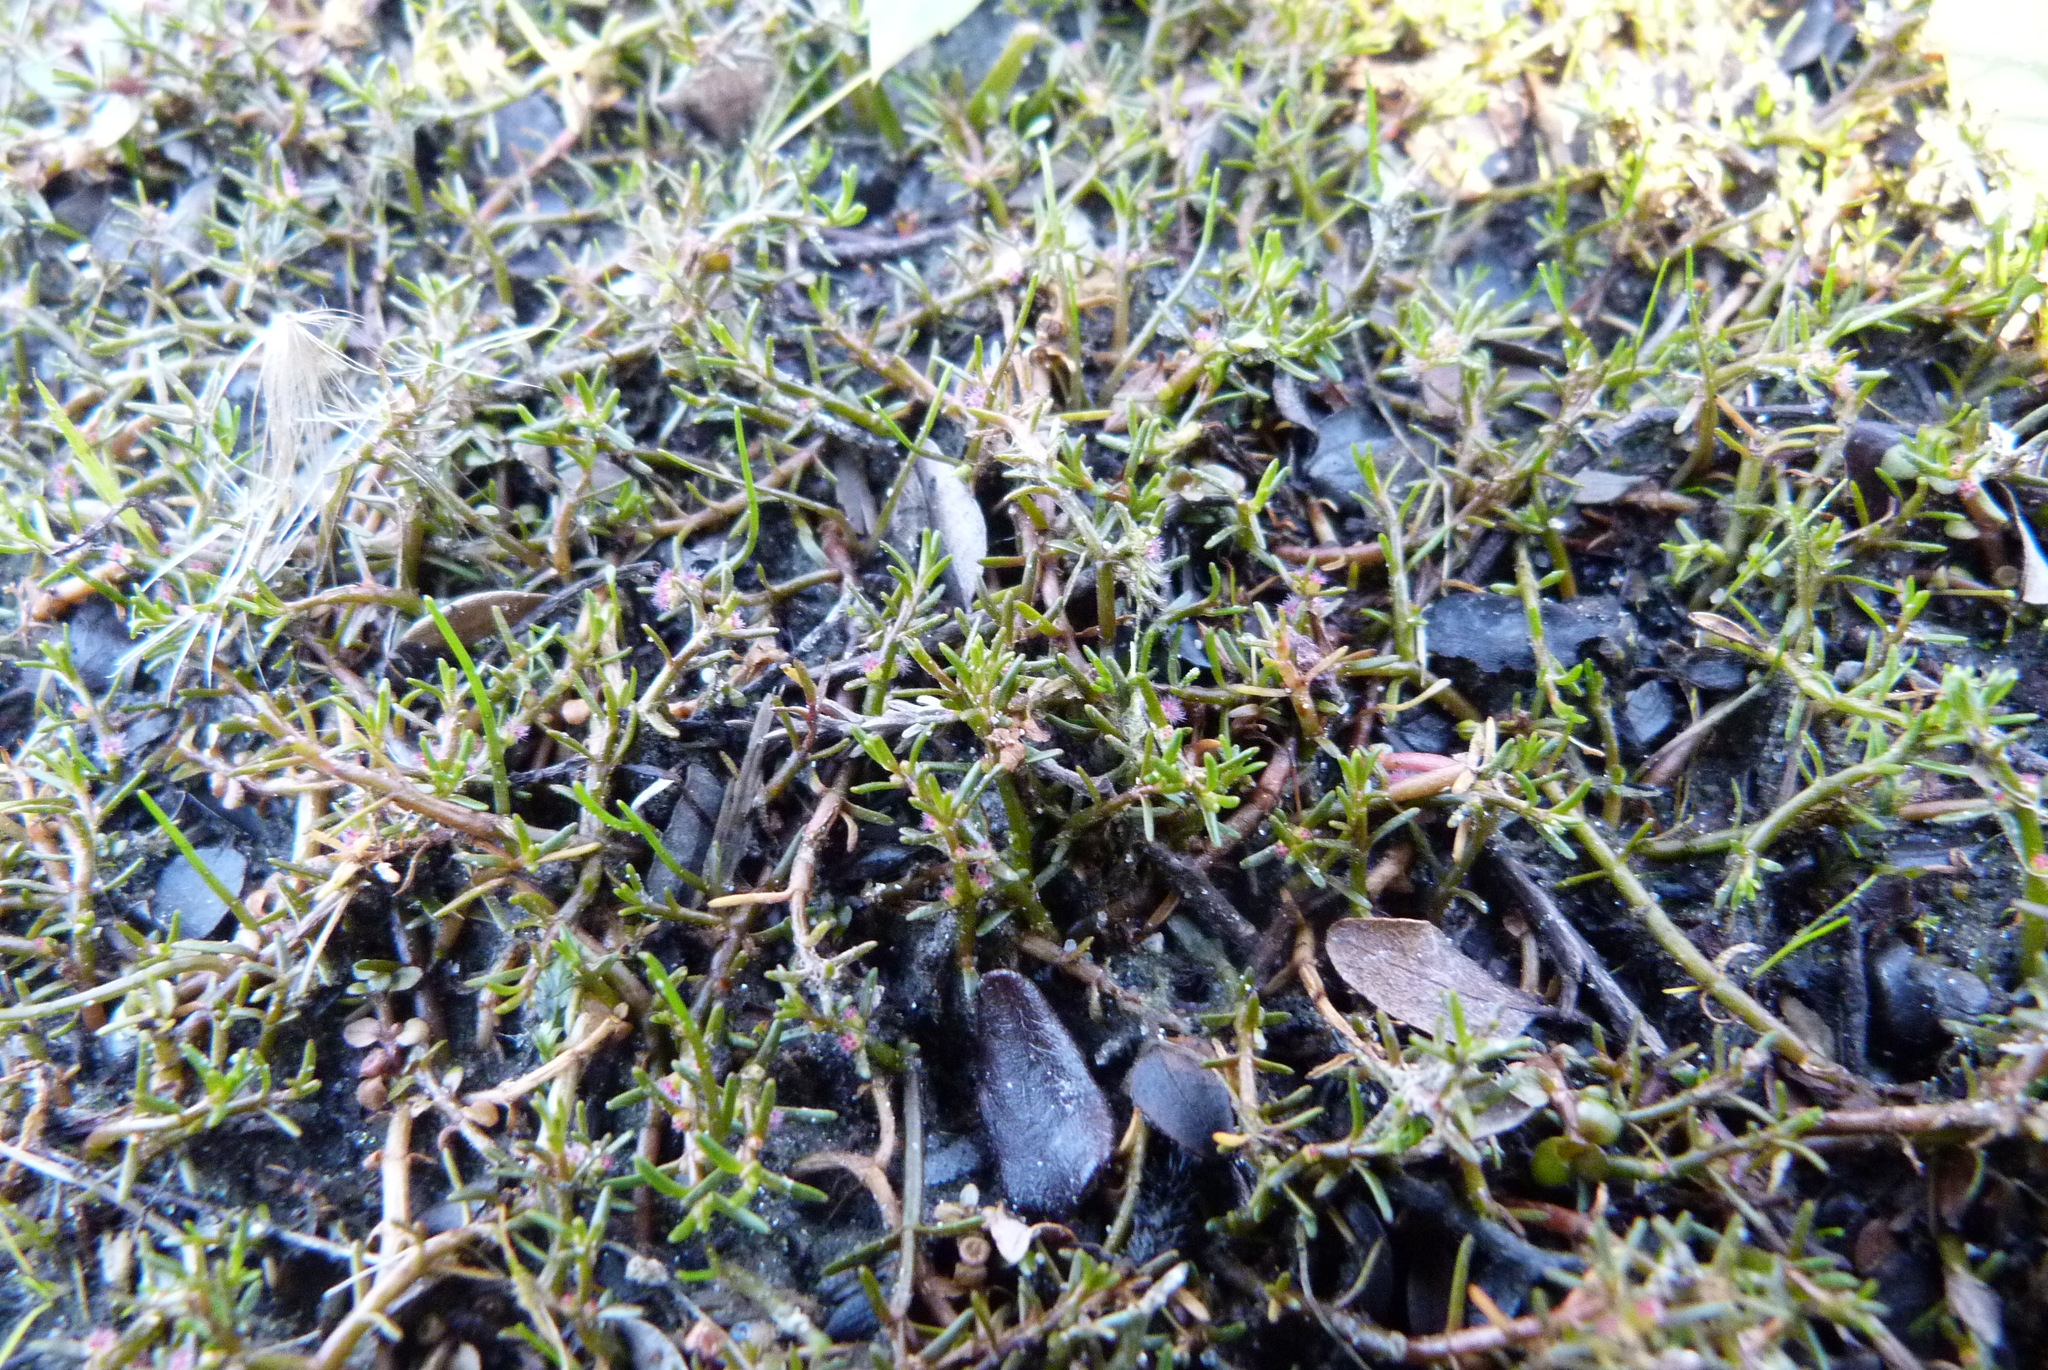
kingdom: Plantae
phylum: Tracheophyta
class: Magnoliopsida
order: Saxifragales
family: Haloragaceae
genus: Myriophyllum
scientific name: Myriophyllum pedunculatum
